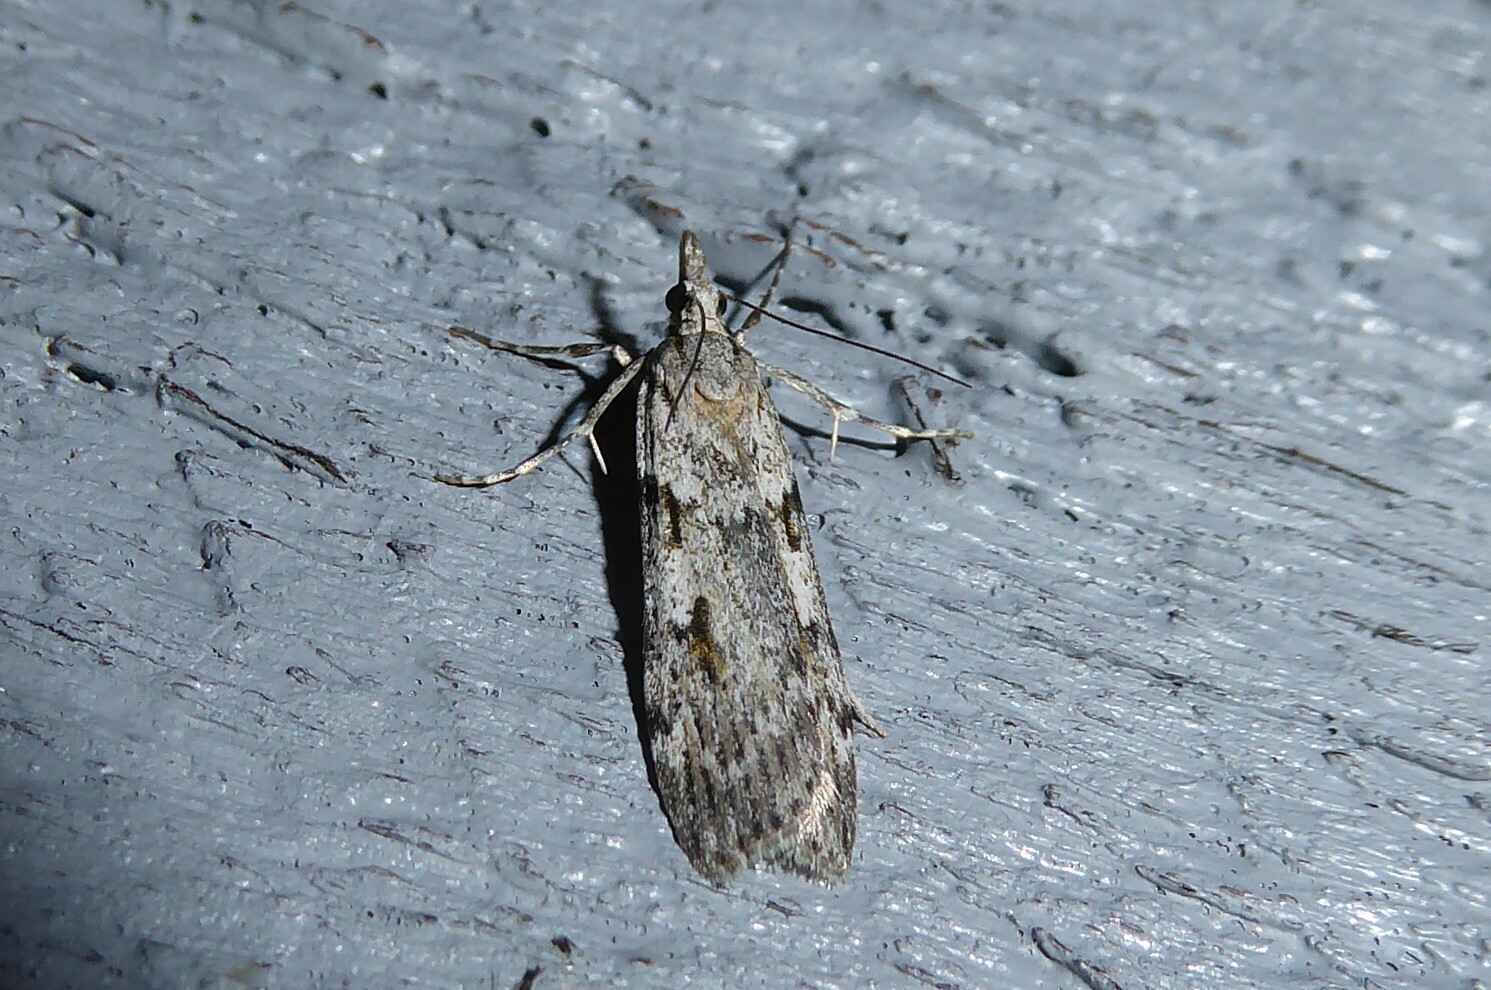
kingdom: Animalia
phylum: Arthropoda
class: Insecta
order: Lepidoptera
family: Crambidae
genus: Scoparia
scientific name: Scoparia halopis
